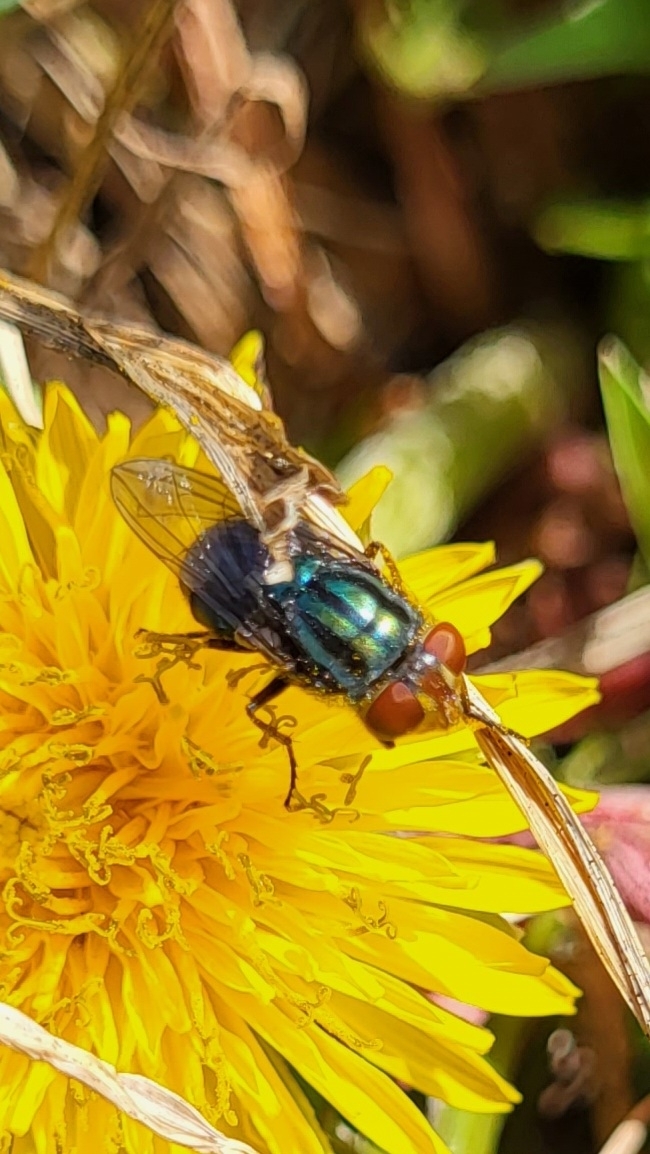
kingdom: Animalia
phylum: Arthropoda
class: Insecta
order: Diptera
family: Calliphoridae
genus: Cochliomyia
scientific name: Cochliomyia macellaria
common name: Secondary screwworm
